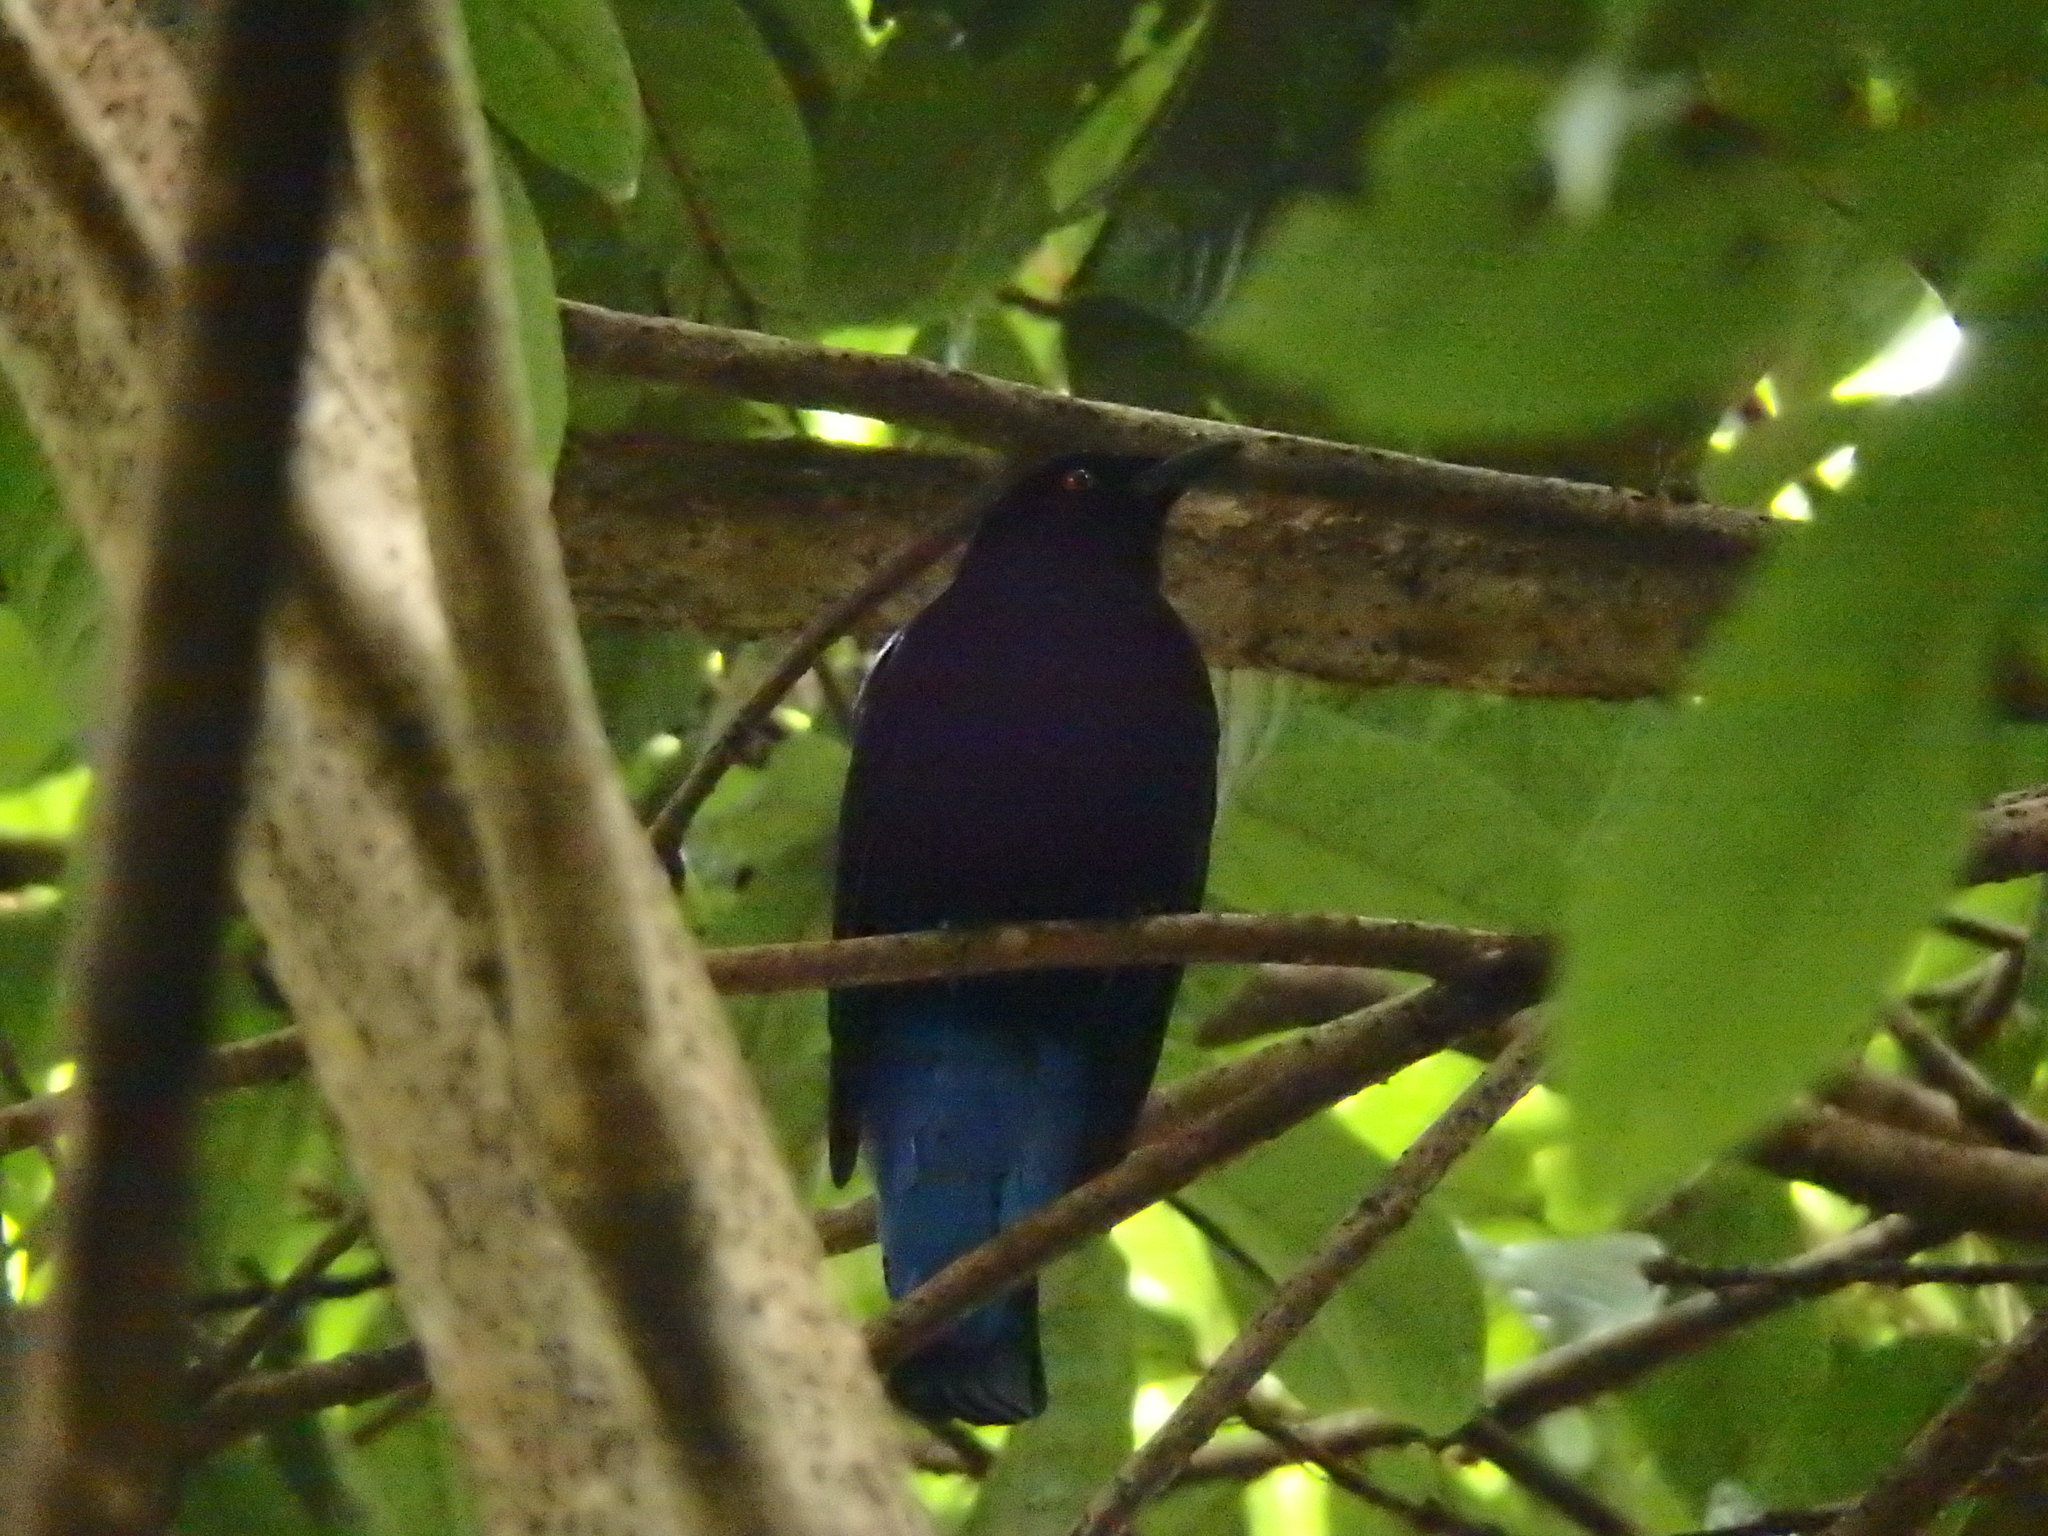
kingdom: Animalia
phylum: Chordata
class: Aves
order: Passeriformes
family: Irenidae
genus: Irena
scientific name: Irena puella
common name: Asian fairy-bluebird
